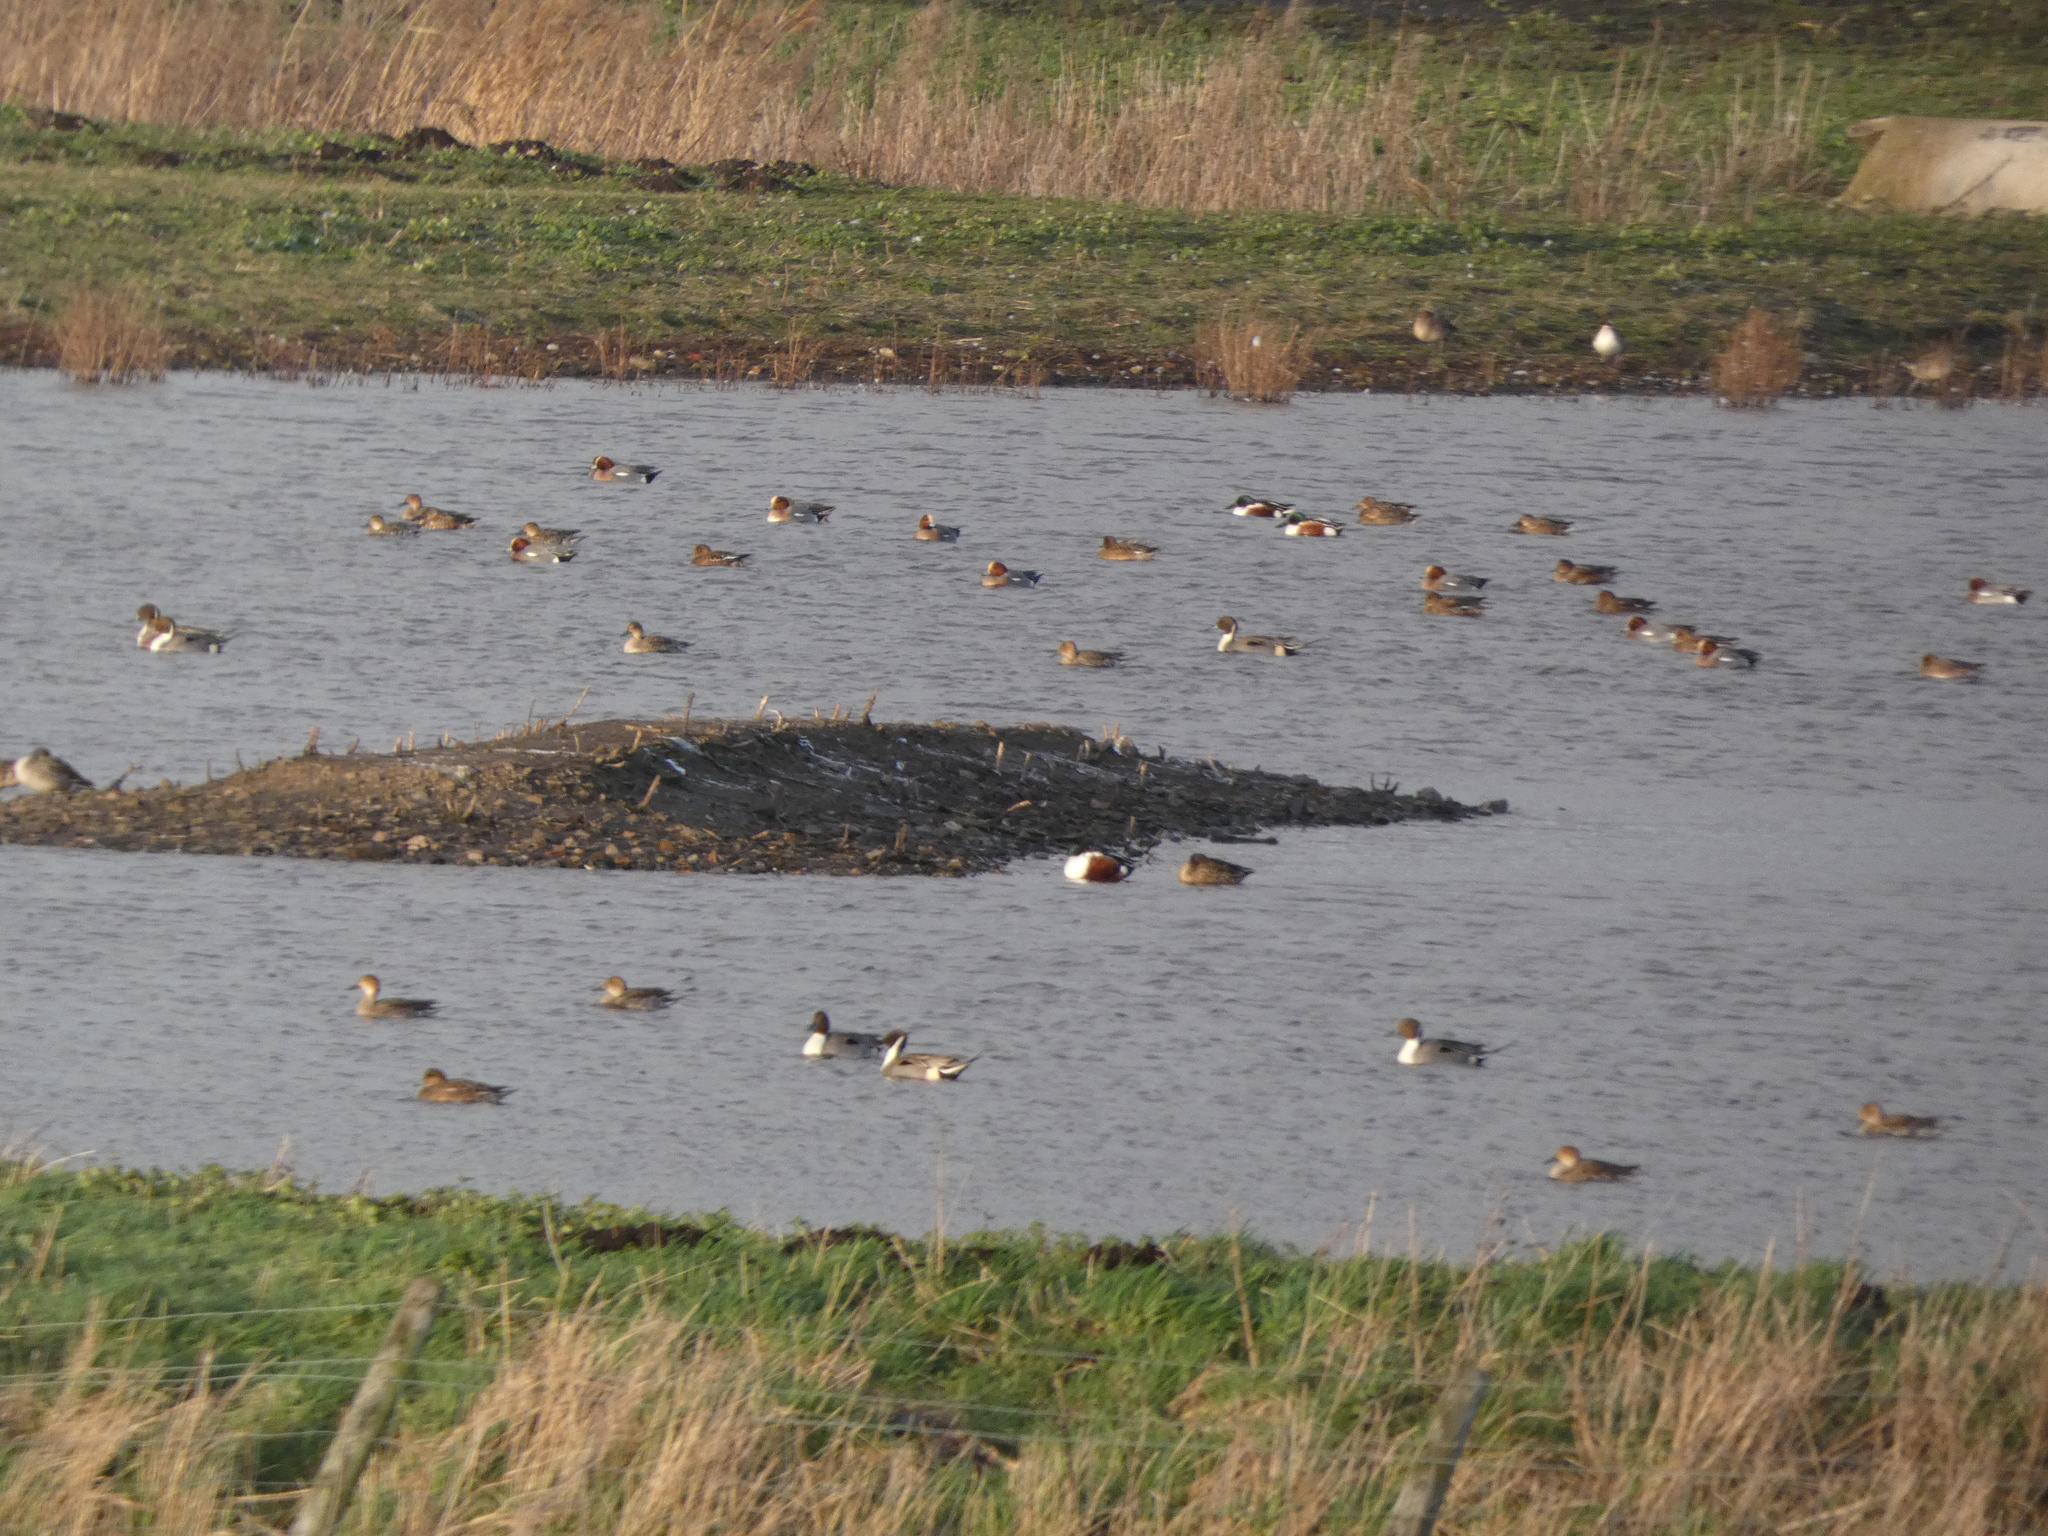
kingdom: Animalia
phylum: Chordata
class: Aves
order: Anseriformes
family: Anatidae
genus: Spatula
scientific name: Spatula clypeata
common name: Northern shoveler
